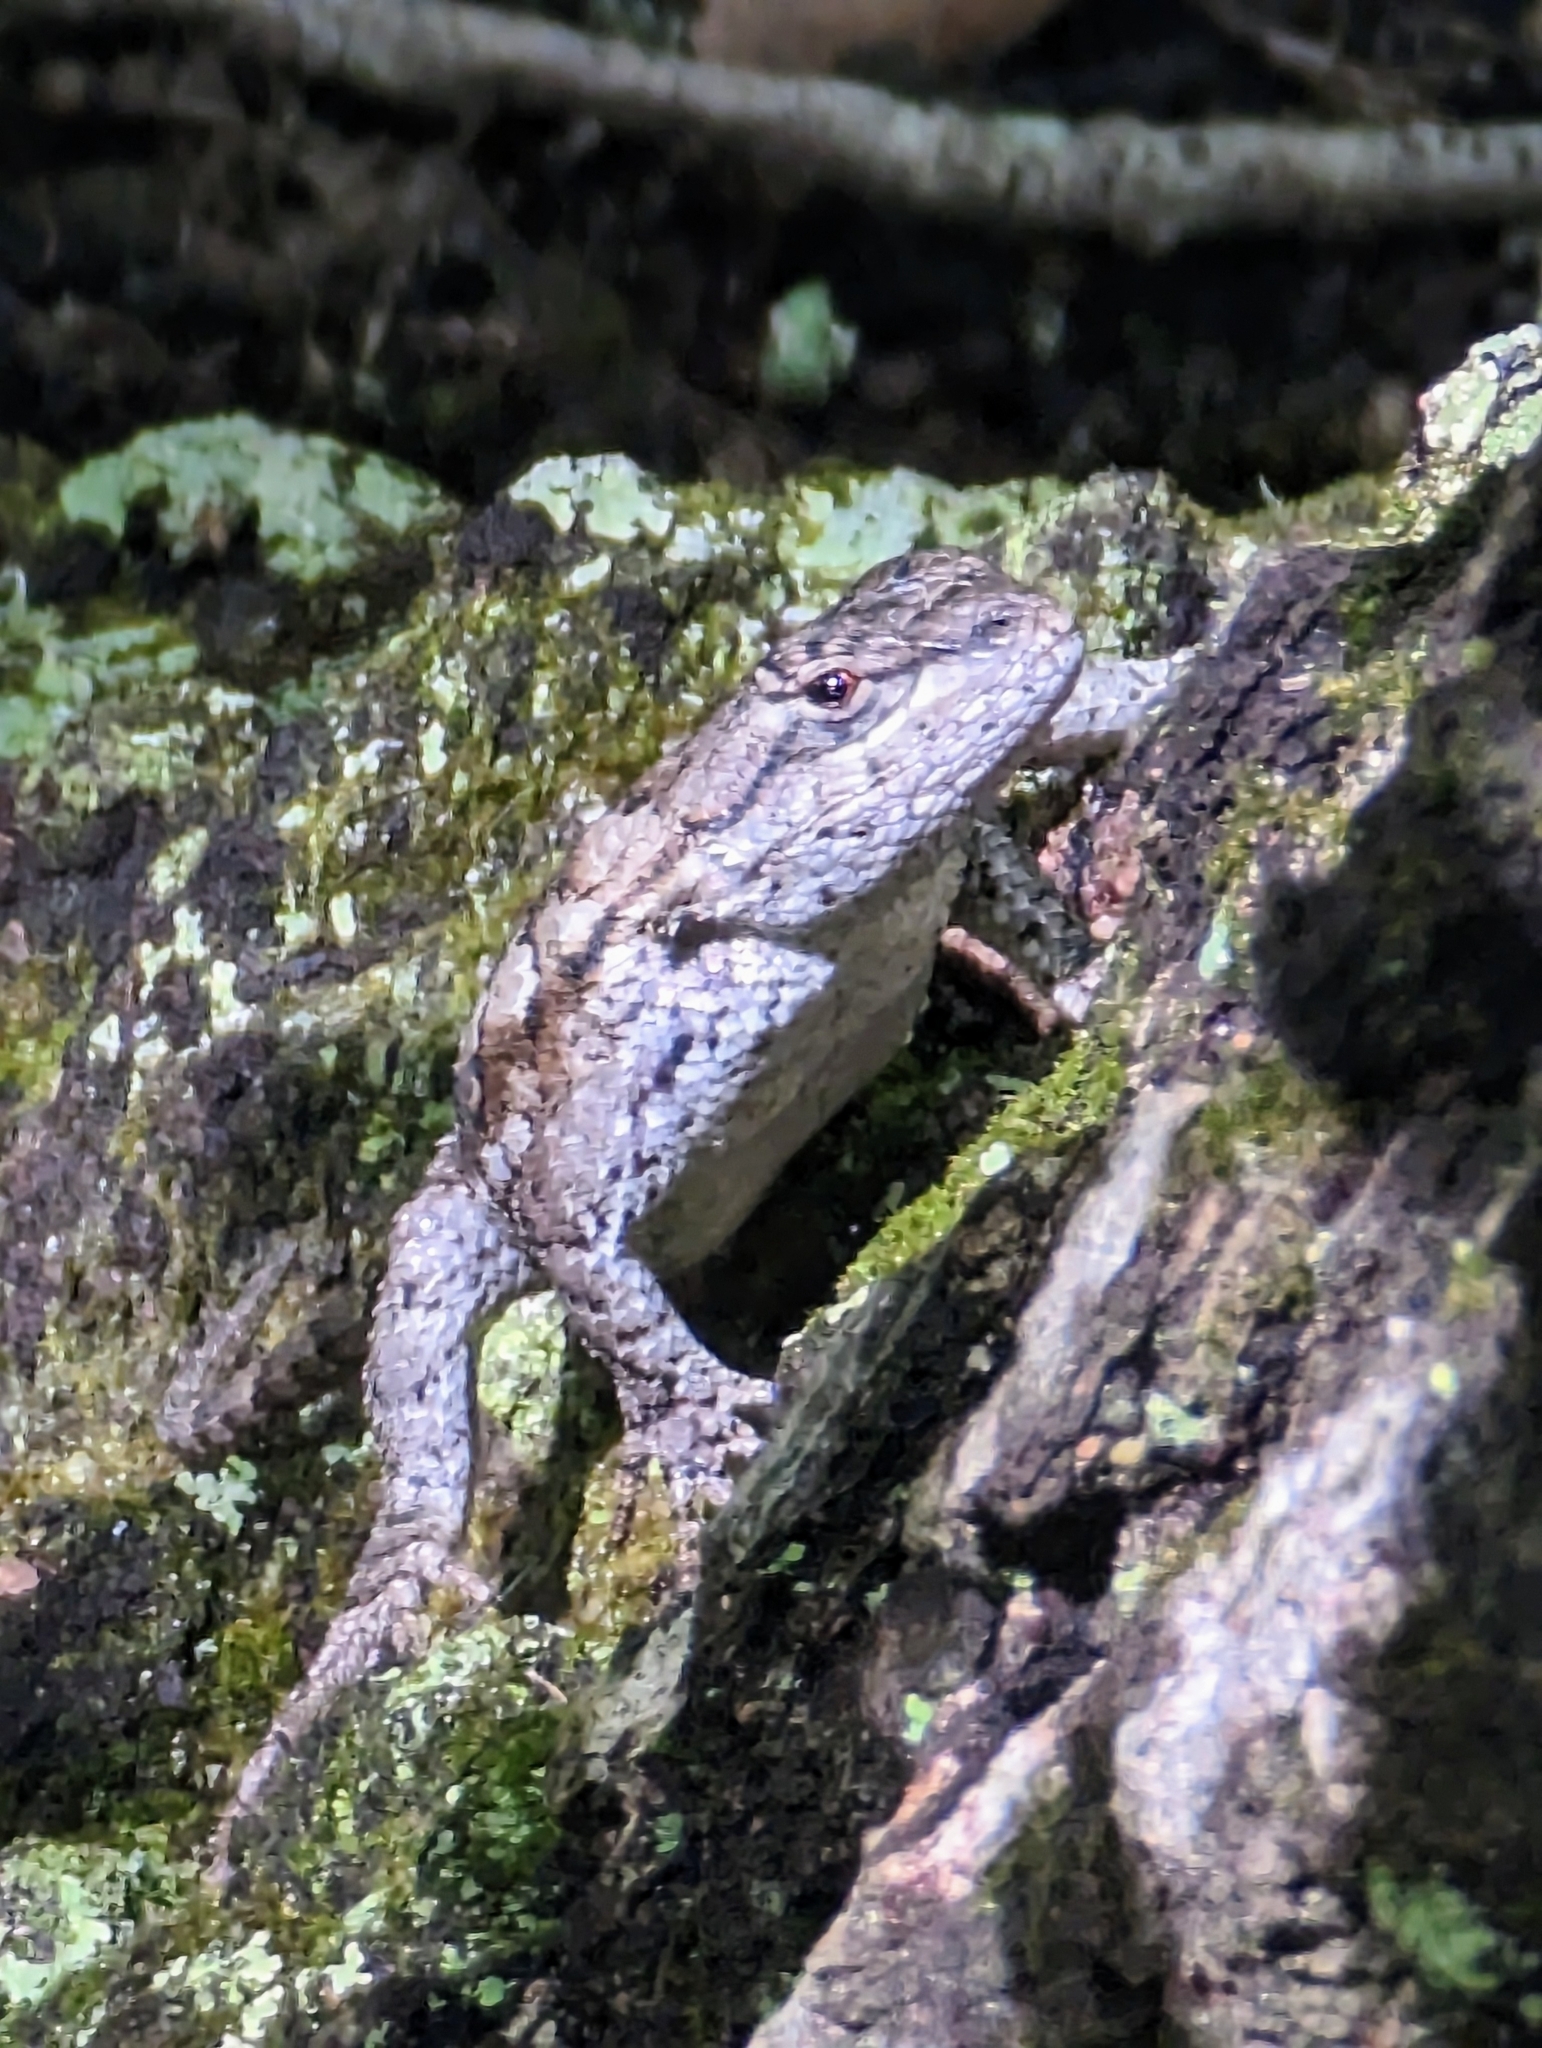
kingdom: Animalia
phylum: Chordata
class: Squamata
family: Phrynosomatidae
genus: Sceloporus
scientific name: Sceloporus undulatus
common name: Eastern fence lizard
